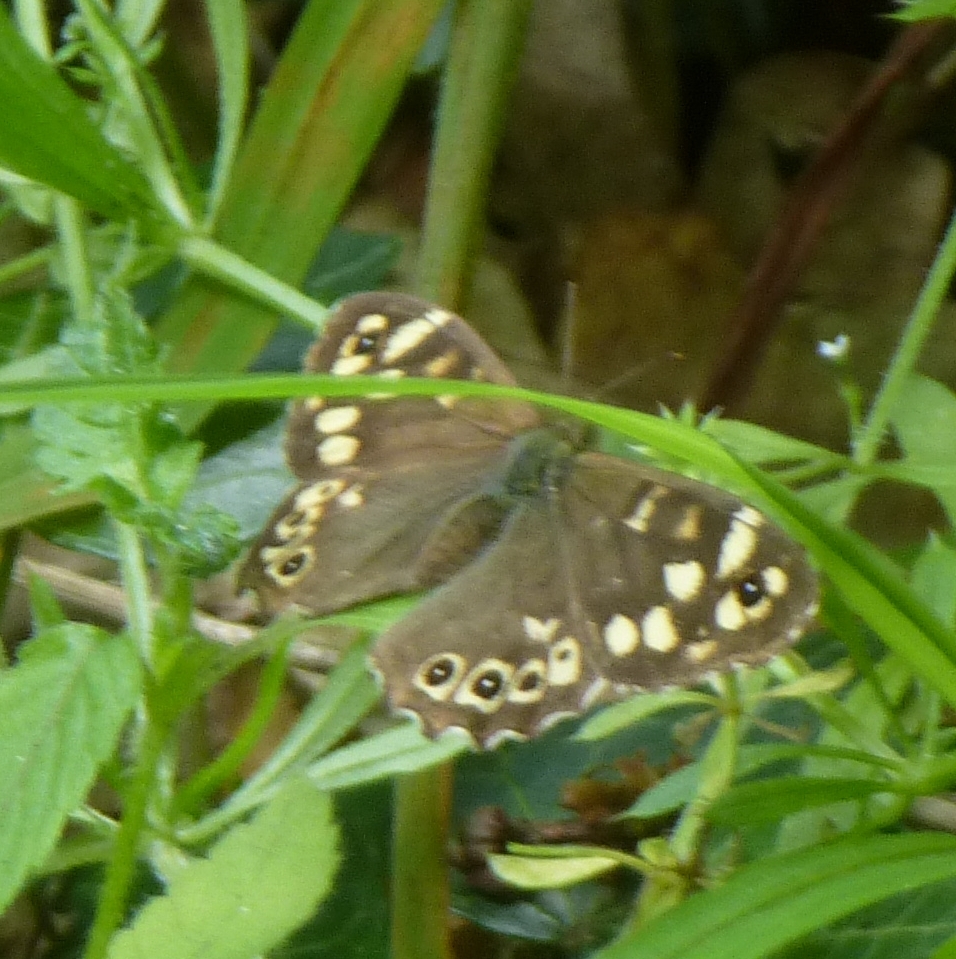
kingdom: Animalia
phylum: Arthropoda
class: Insecta
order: Lepidoptera
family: Nymphalidae
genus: Pararge
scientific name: Pararge aegeria
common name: Speckled wood
